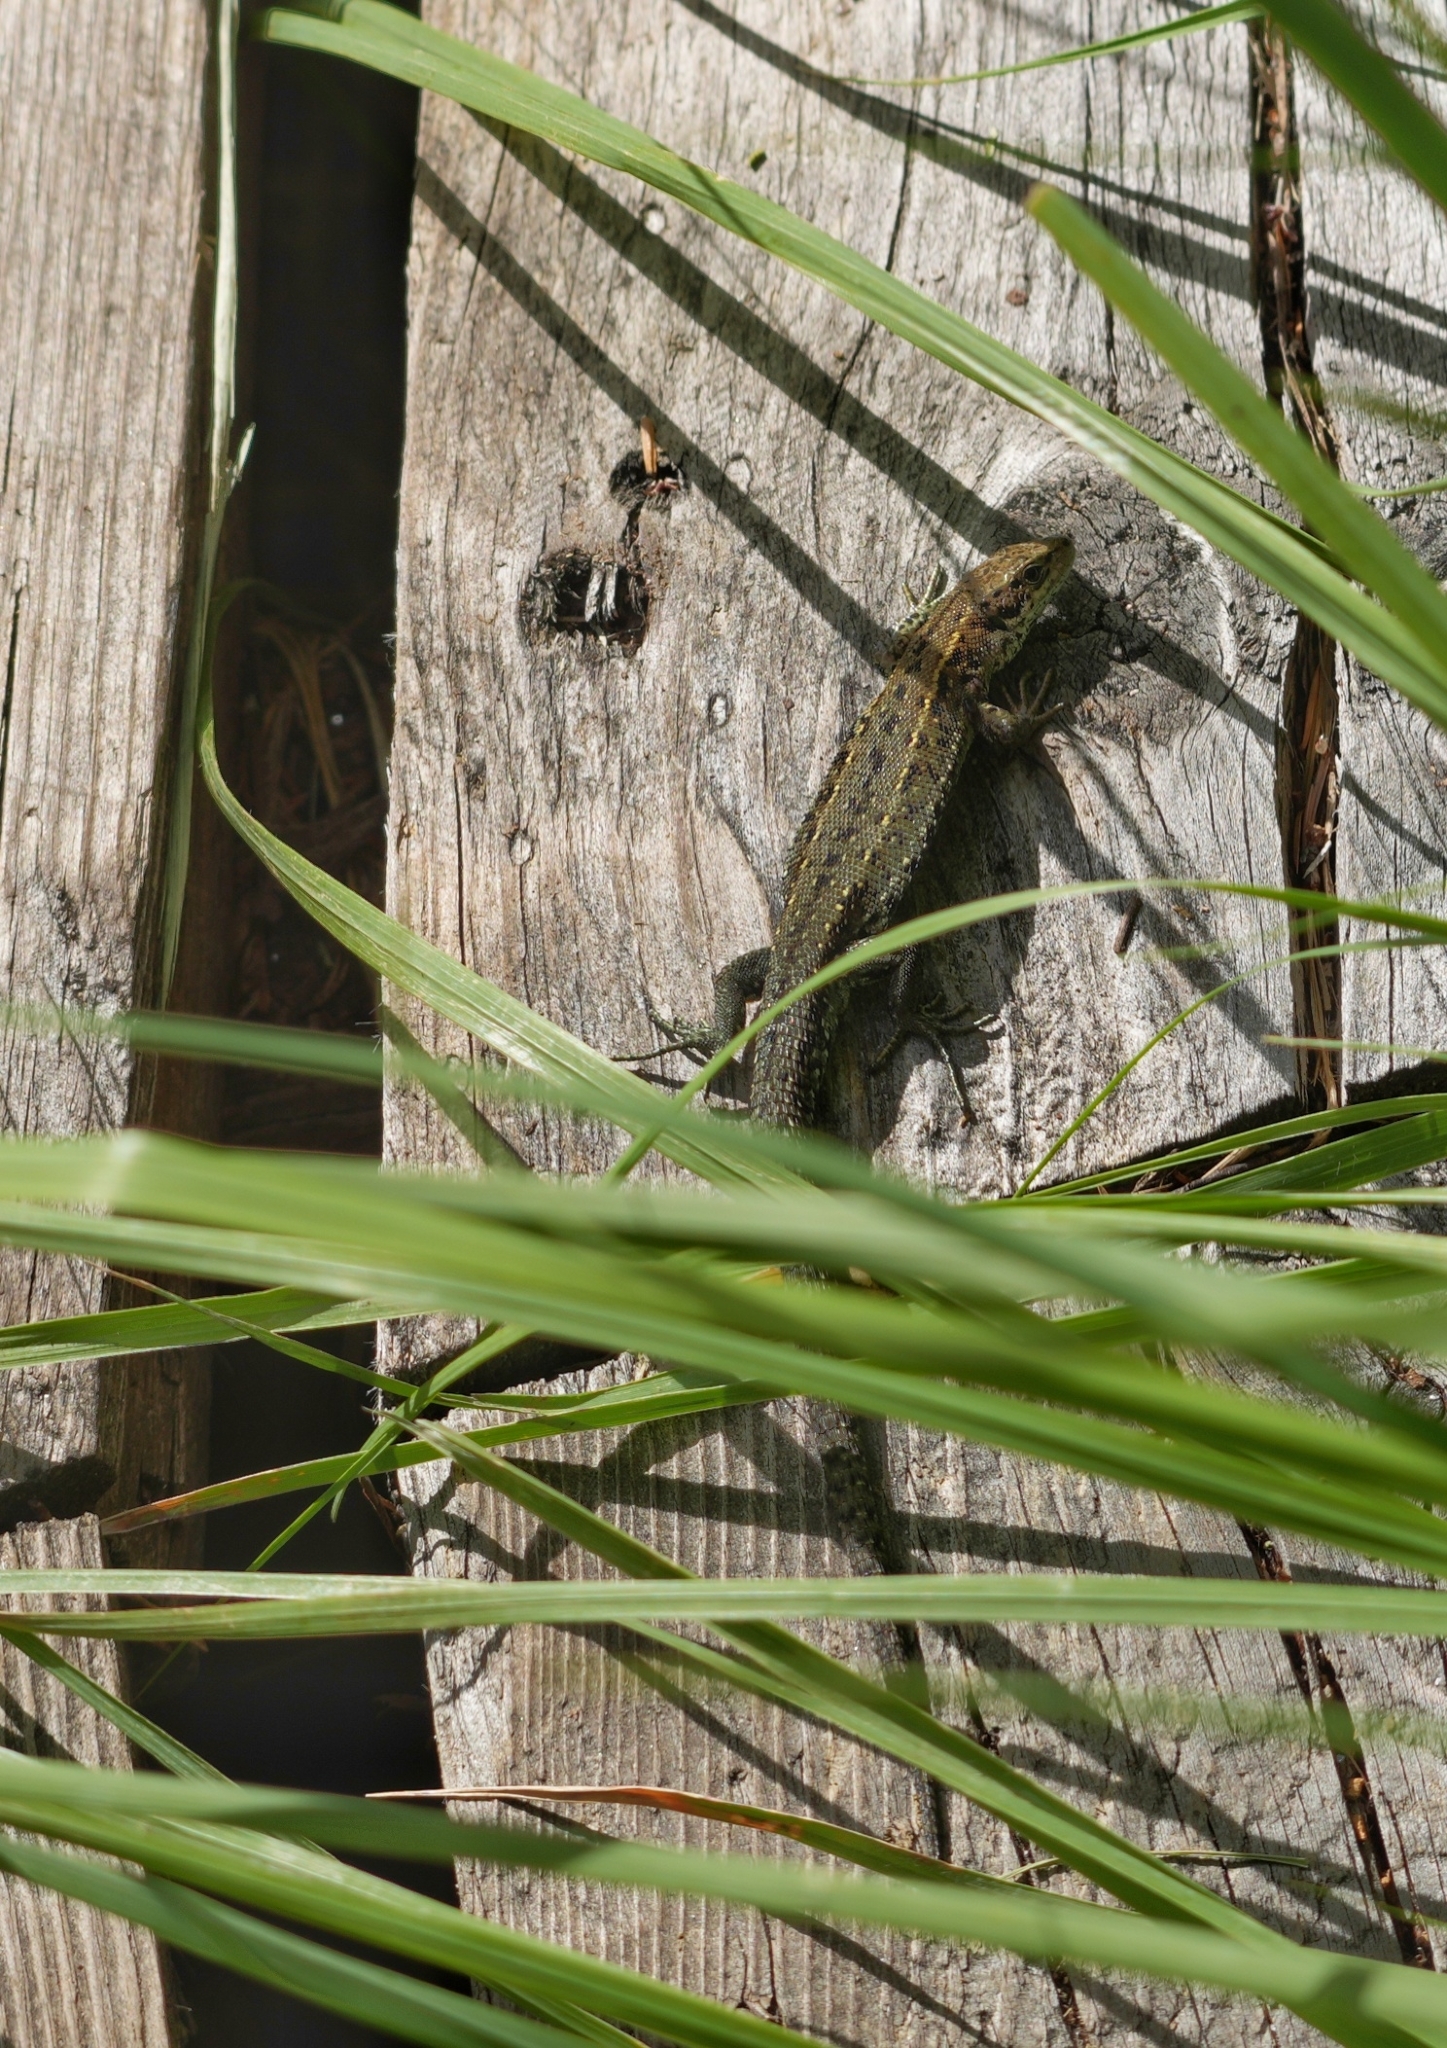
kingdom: Animalia
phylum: Chordata
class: Squamata
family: Lacertidae
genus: Zootoca
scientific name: Zootoca vivipara
